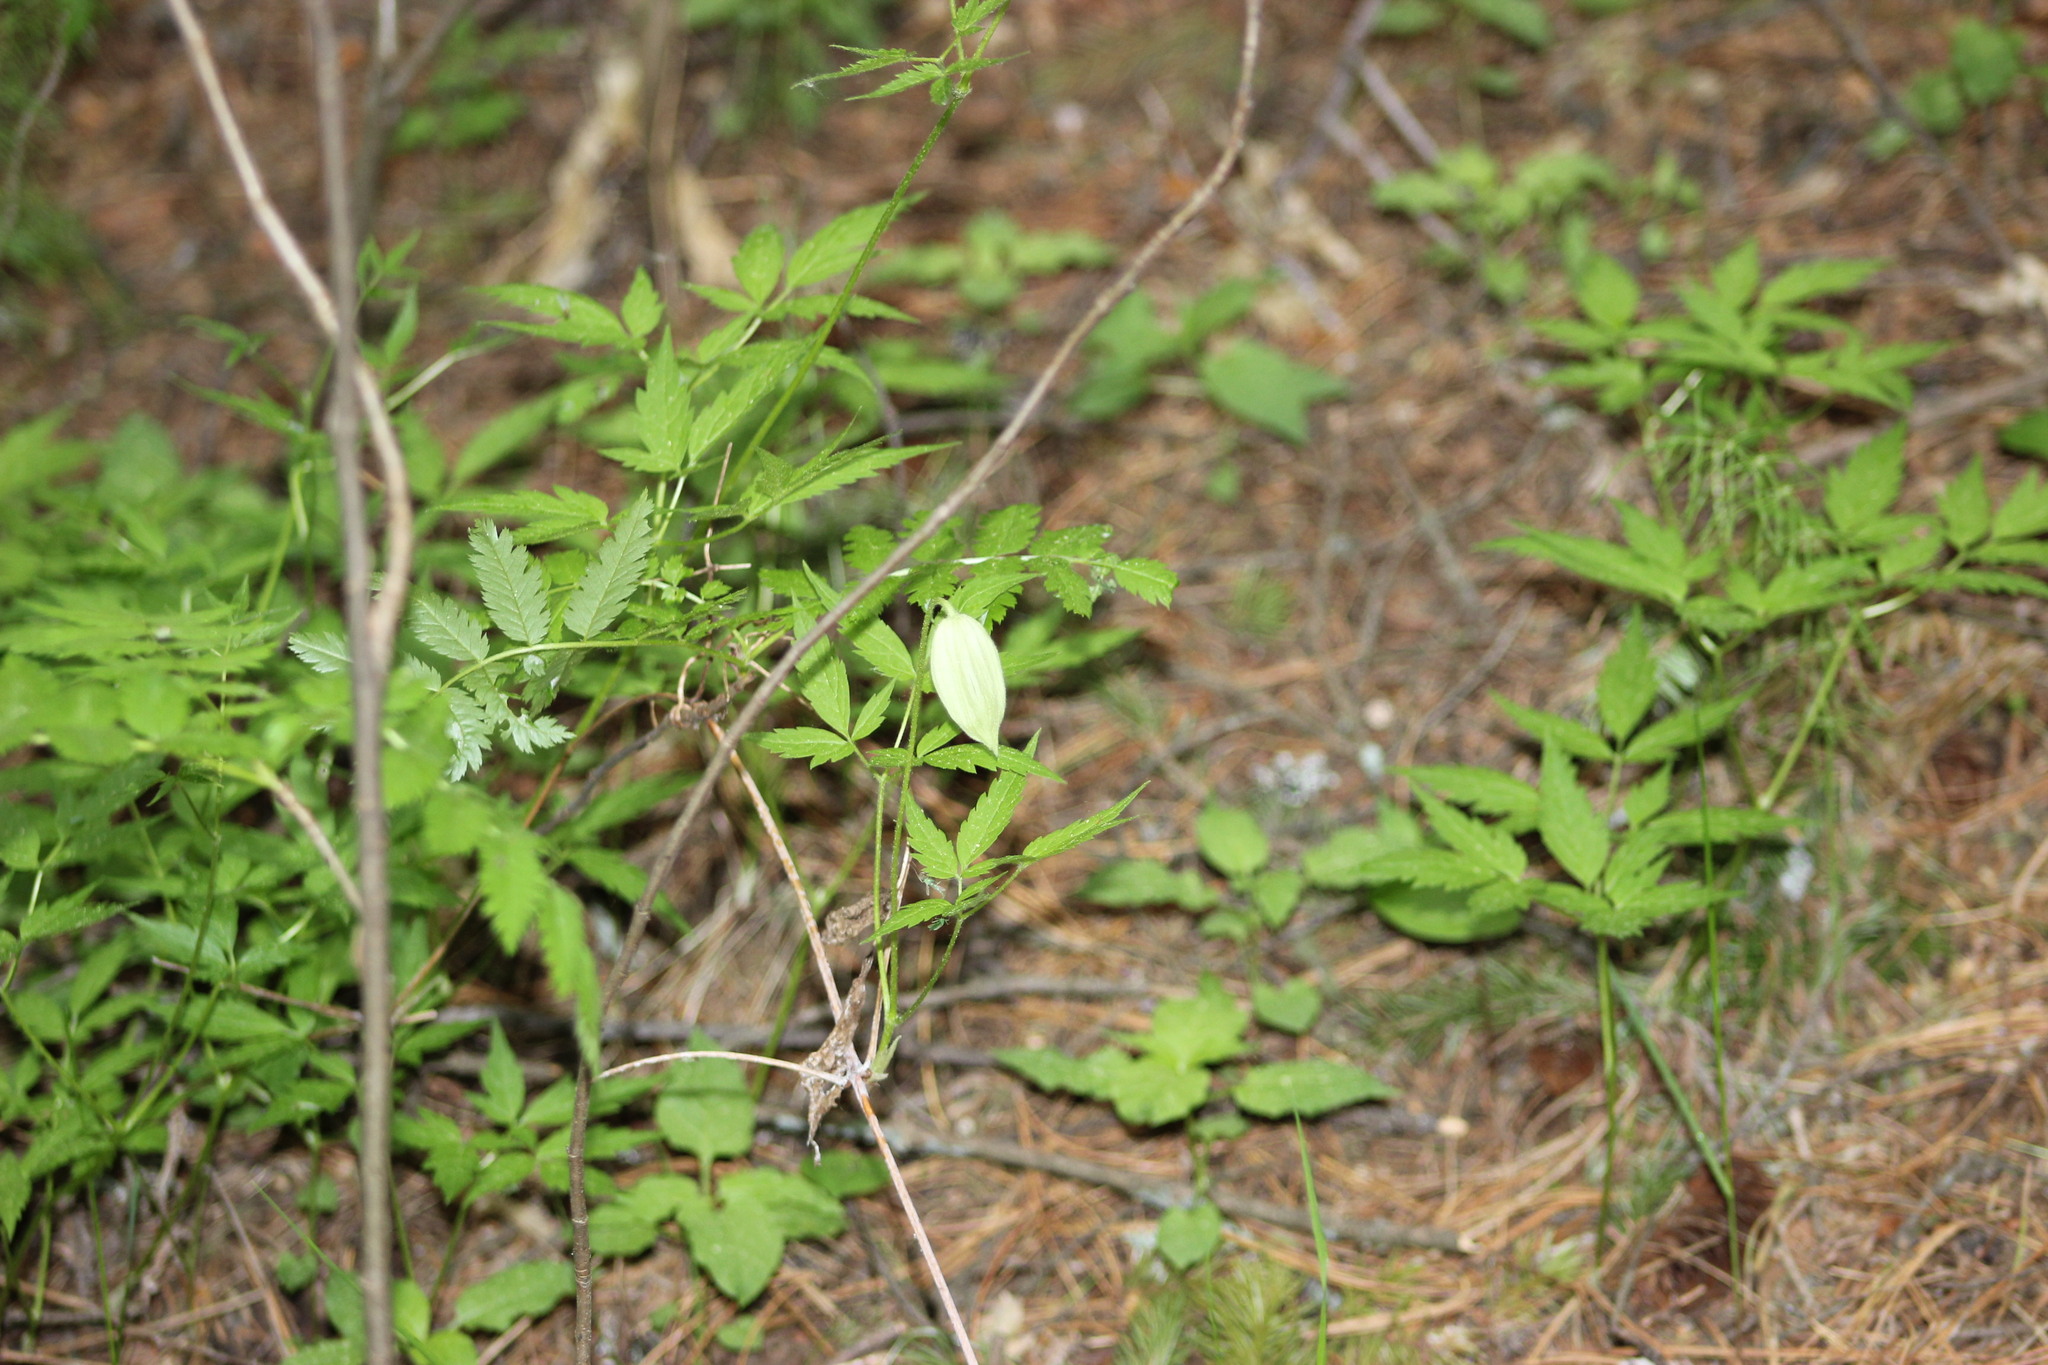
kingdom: Plantae
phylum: Tracheophyta
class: Magnoliopsida
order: Ranunculales
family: Ranunculaceae
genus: Clematis
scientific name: Clematis sibirica
